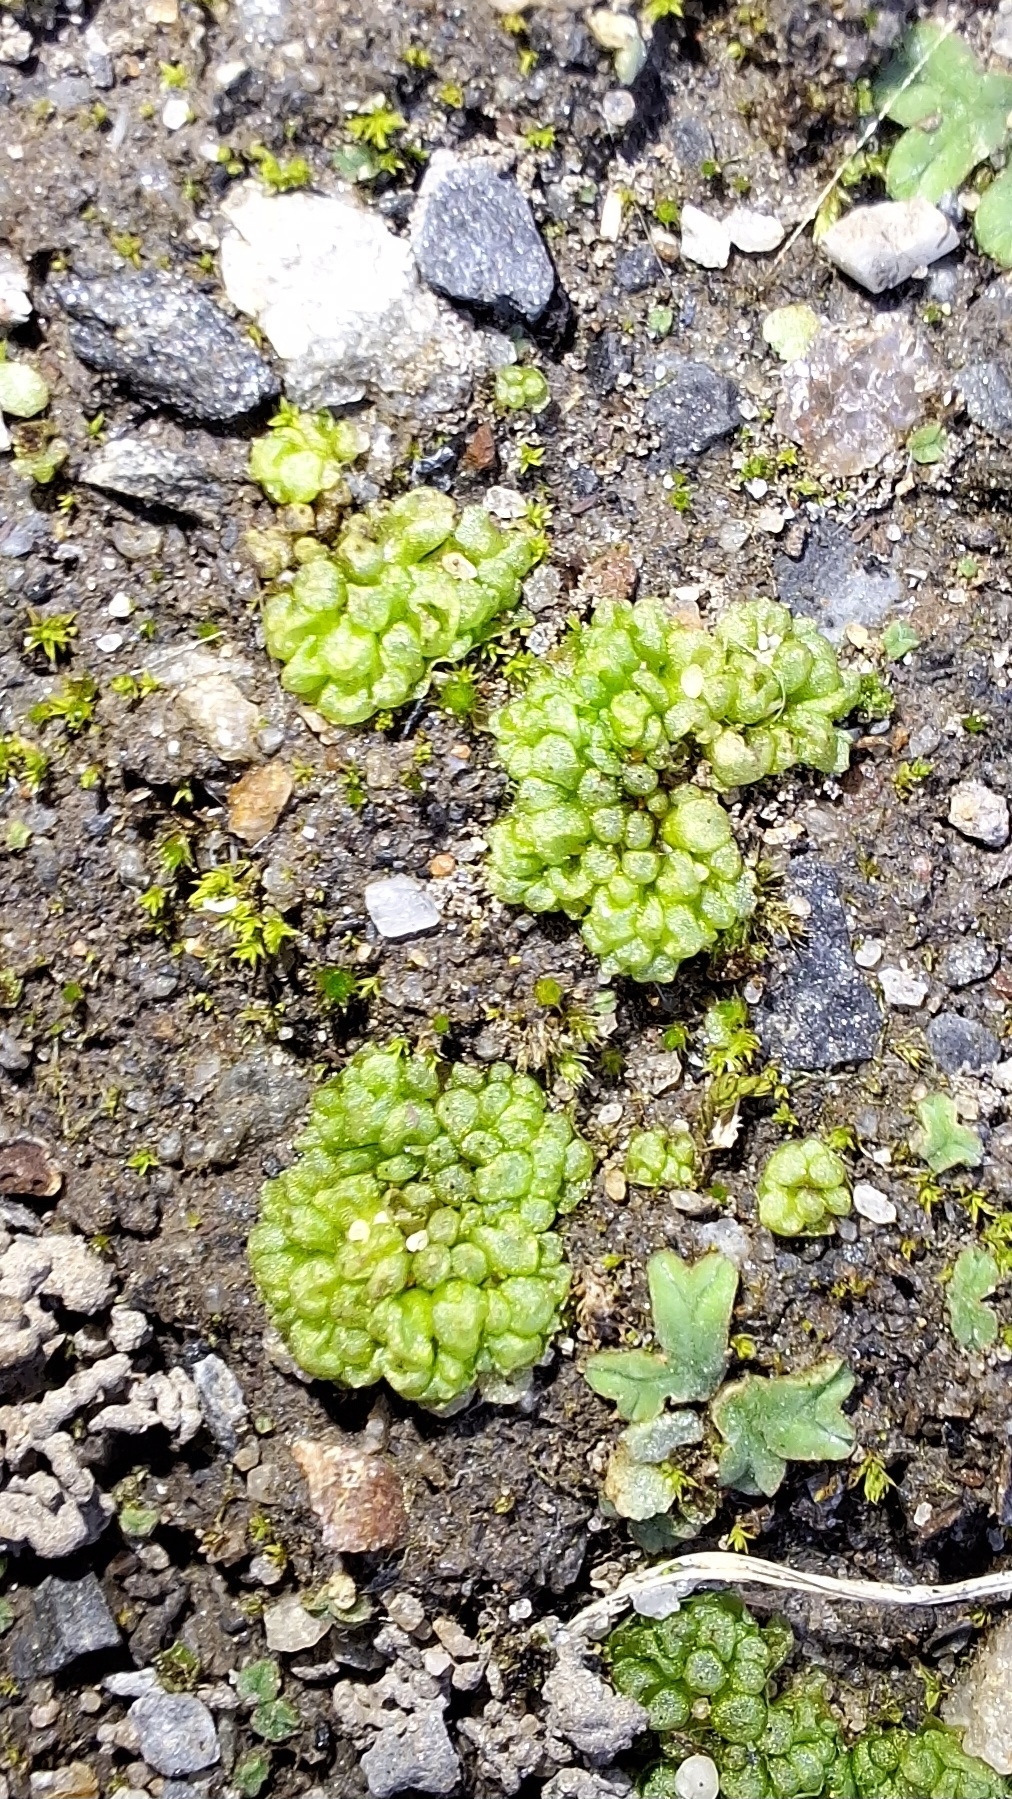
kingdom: Plantae
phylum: Marchantiophyta
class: Marchantiopsida
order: Sphaerocarpales
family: Sphaerocarpaceae
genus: Sphaerocarpos
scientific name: Sphaerocarpos texanus
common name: Texas balloonwort
